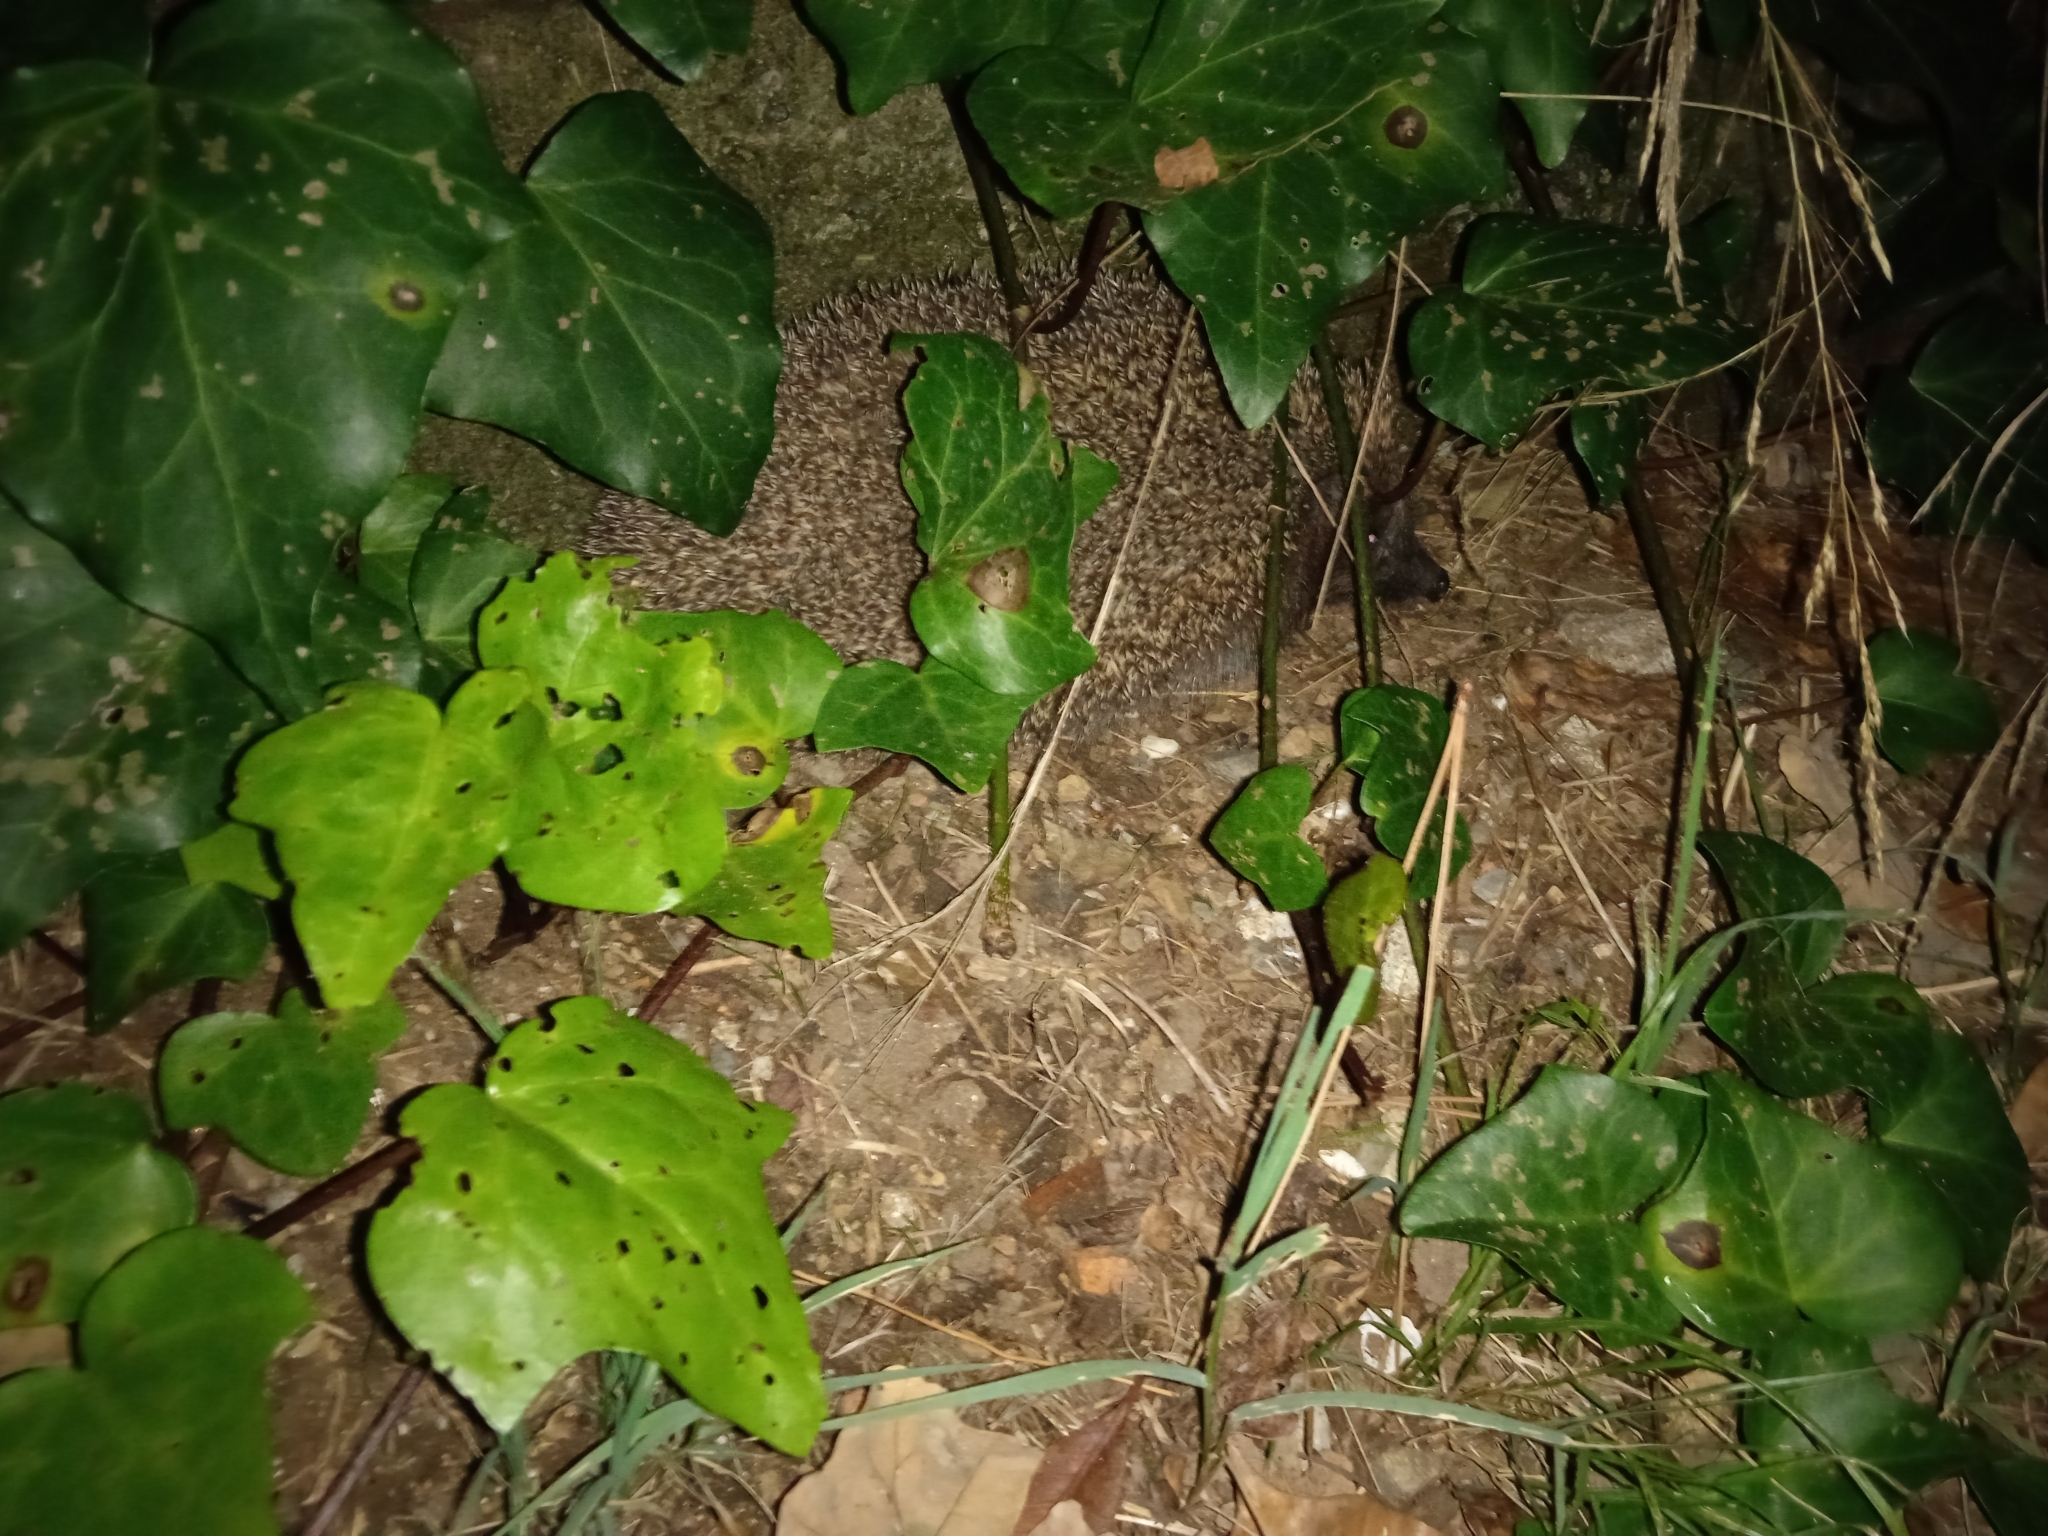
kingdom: Animalia
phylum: Chordata
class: Mammalia
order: Erinaceomorpha
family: Erinaceidae
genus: Erinaceus
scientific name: Erinaceus roumanicus
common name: Northern white-breasted hedgehog
